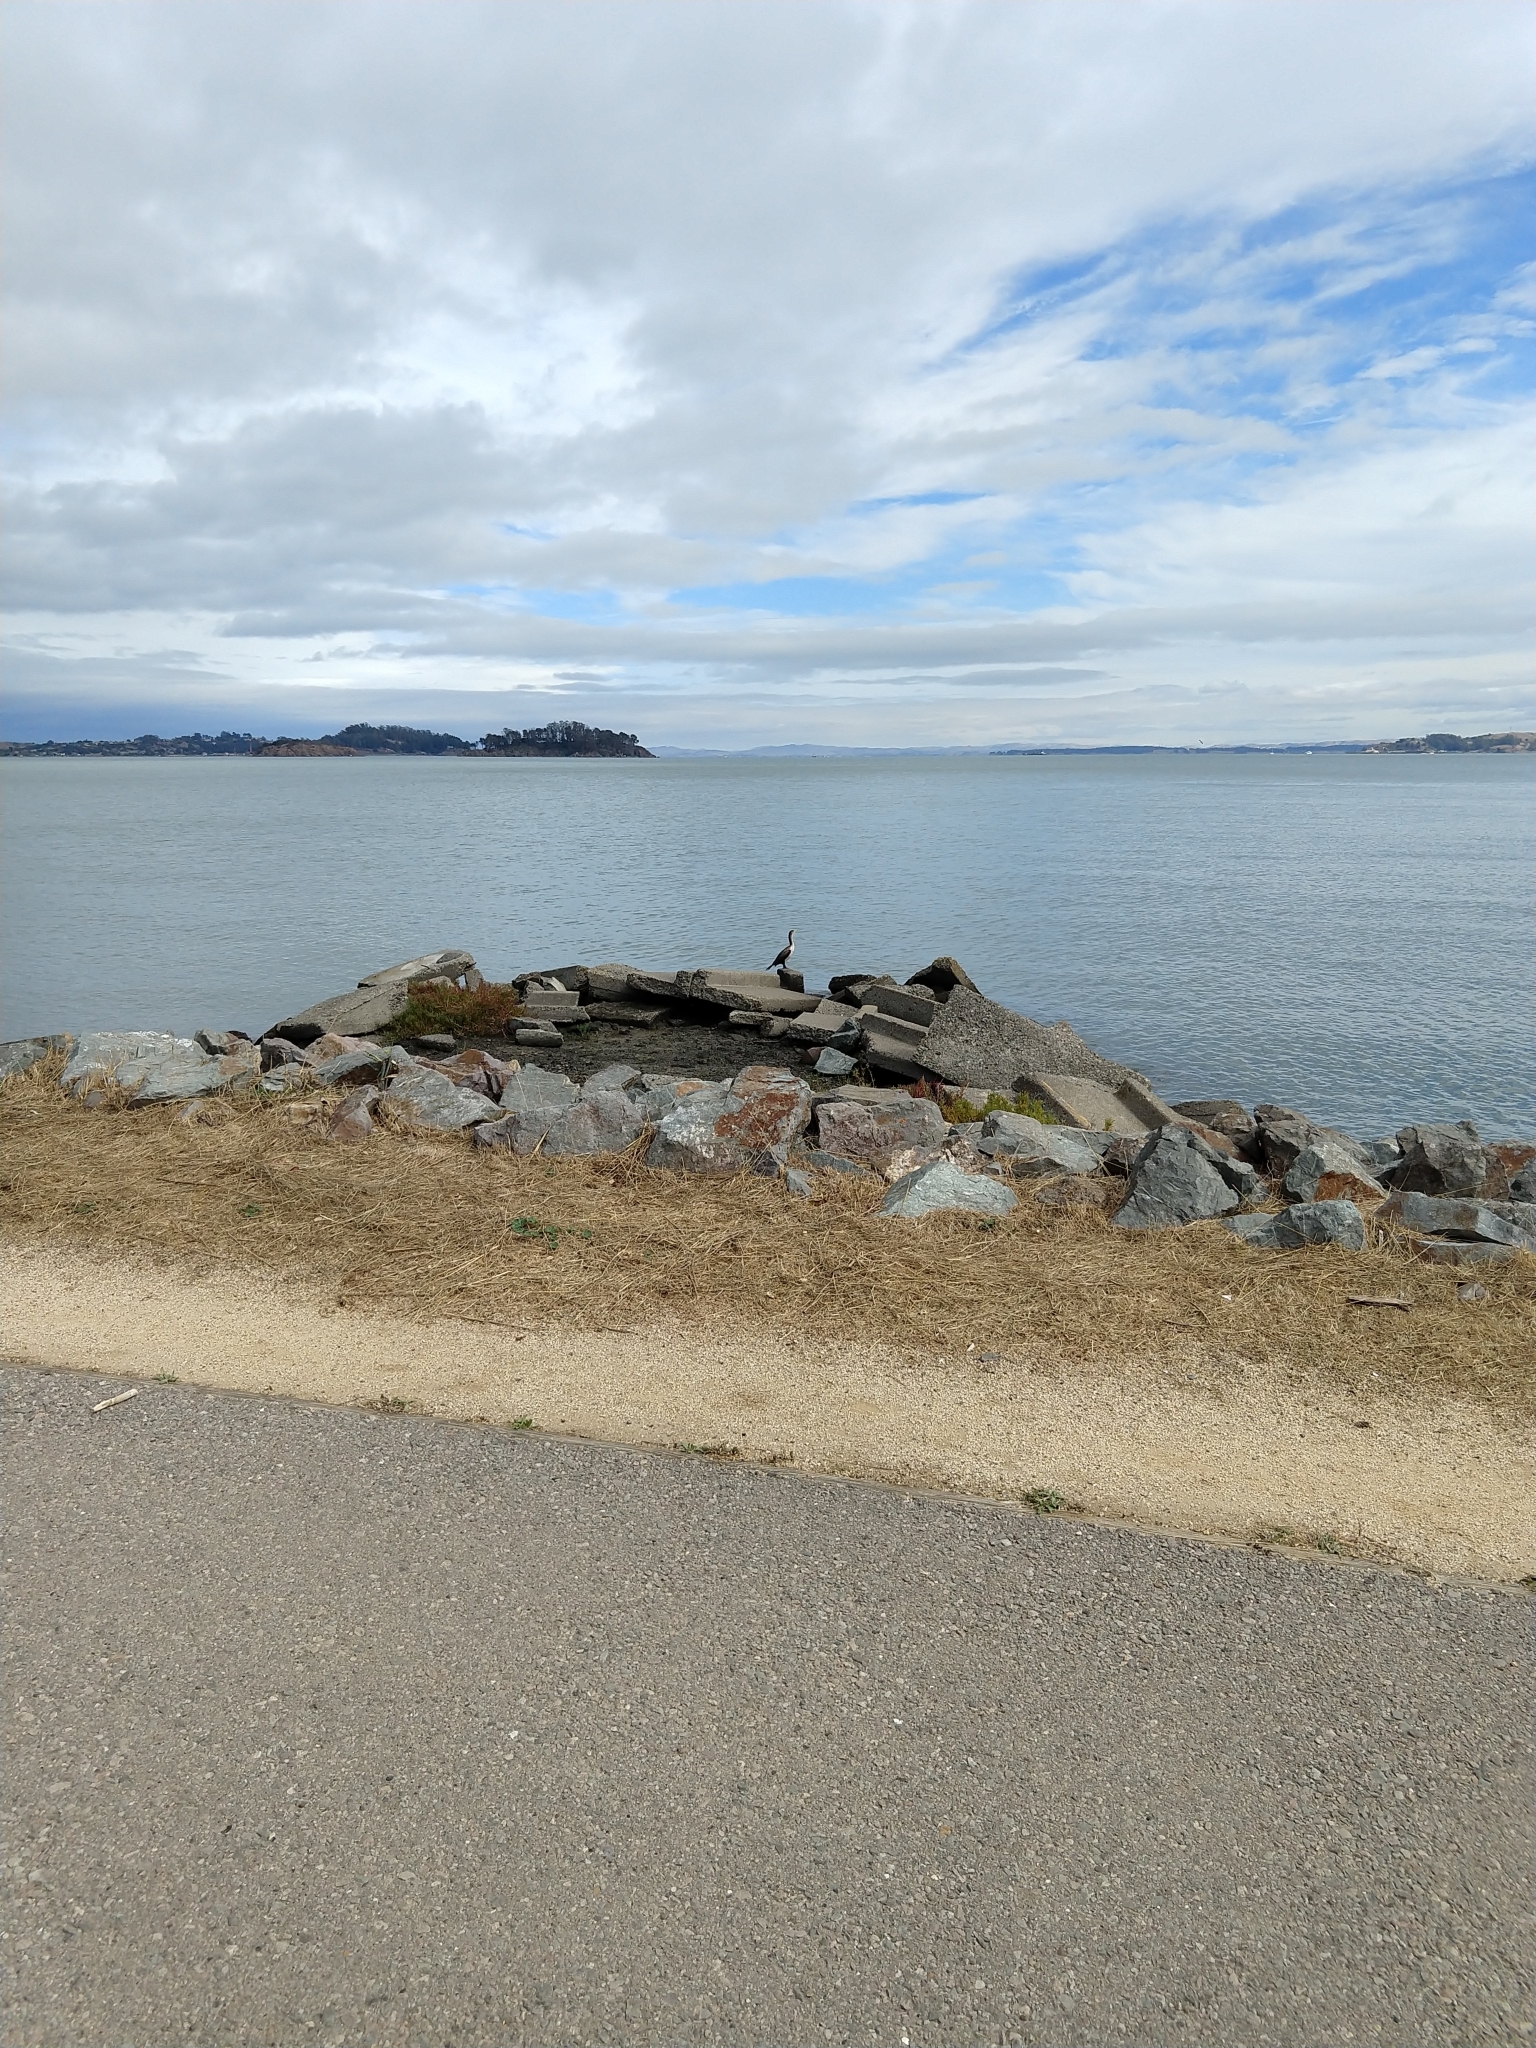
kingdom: Animalia
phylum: Chordata
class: Aves
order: Suliformes
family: Phalacrocoracidae
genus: Phalacrocorax
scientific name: Phalacrocorax auritus
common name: Double-crested cormorant
